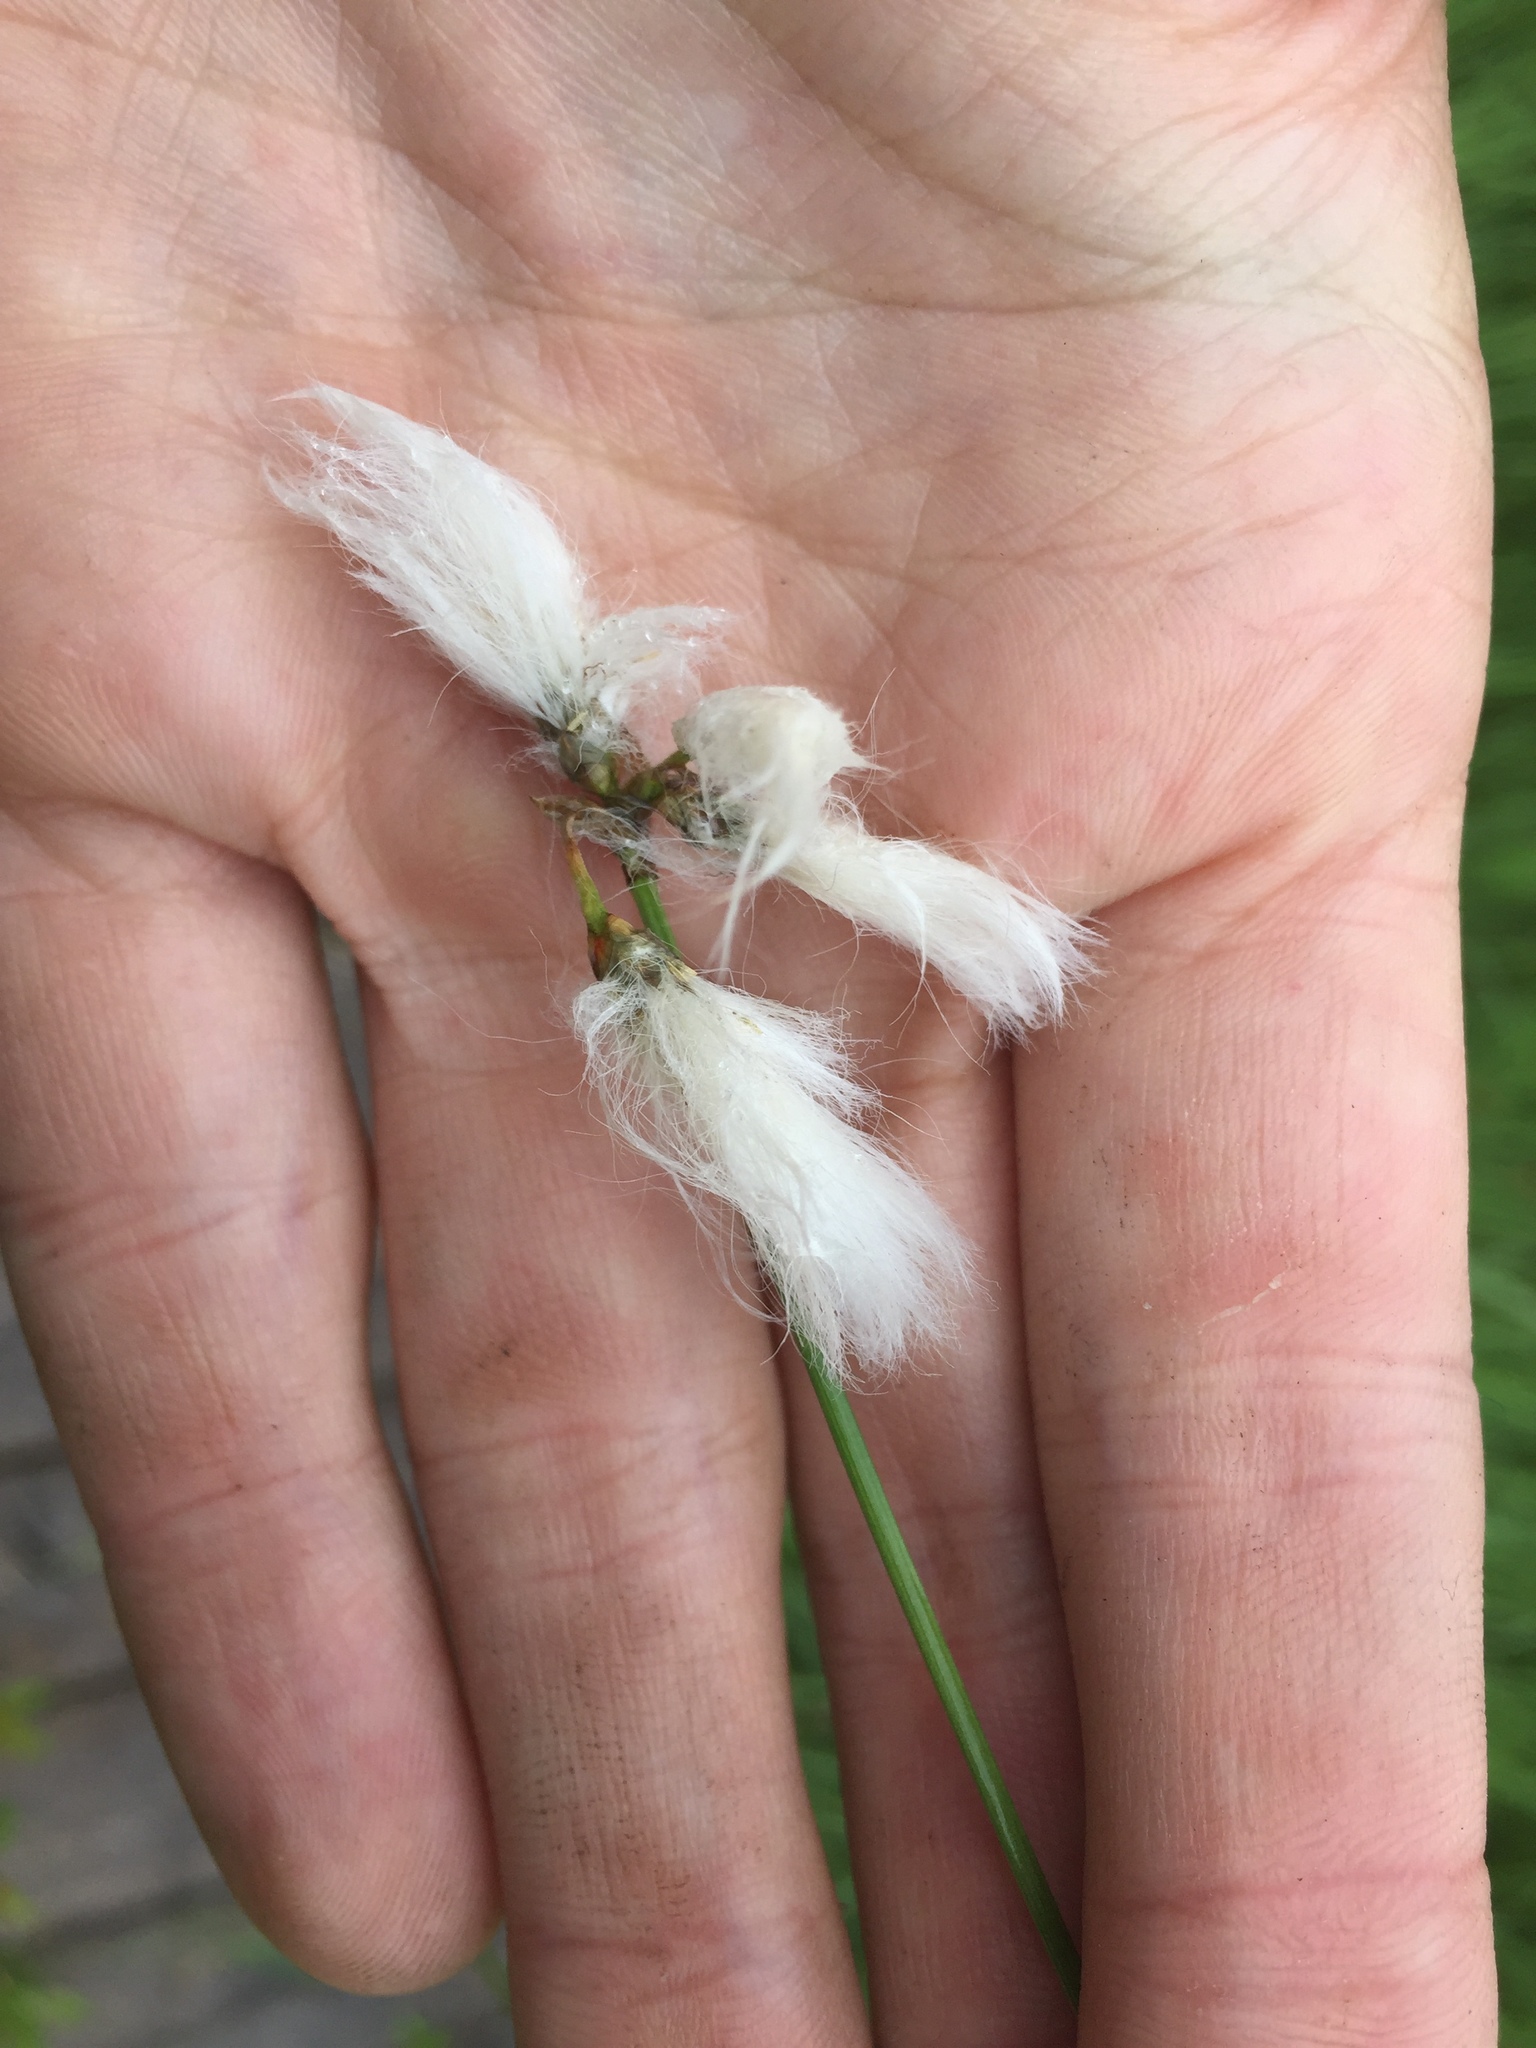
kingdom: Plantae
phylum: Tracheophyta
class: Liliopsida
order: Poales
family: Cyperaceae
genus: Eriophorum
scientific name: Eriophorum gracile
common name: Slender cottongrass
